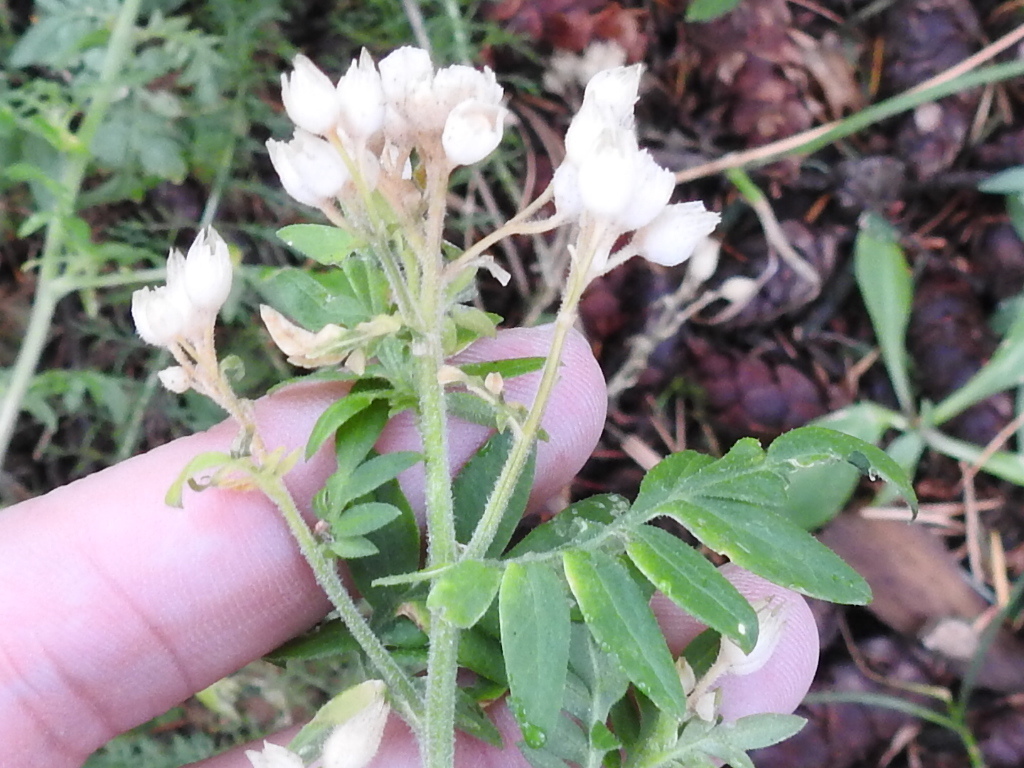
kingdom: Plantae
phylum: Tracheophyta
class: Magnoliopsida
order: Ericales
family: Polemoniaceae
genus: Polemonium
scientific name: Polemonium foliosissimum
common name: Leafy jacob's-ladder
